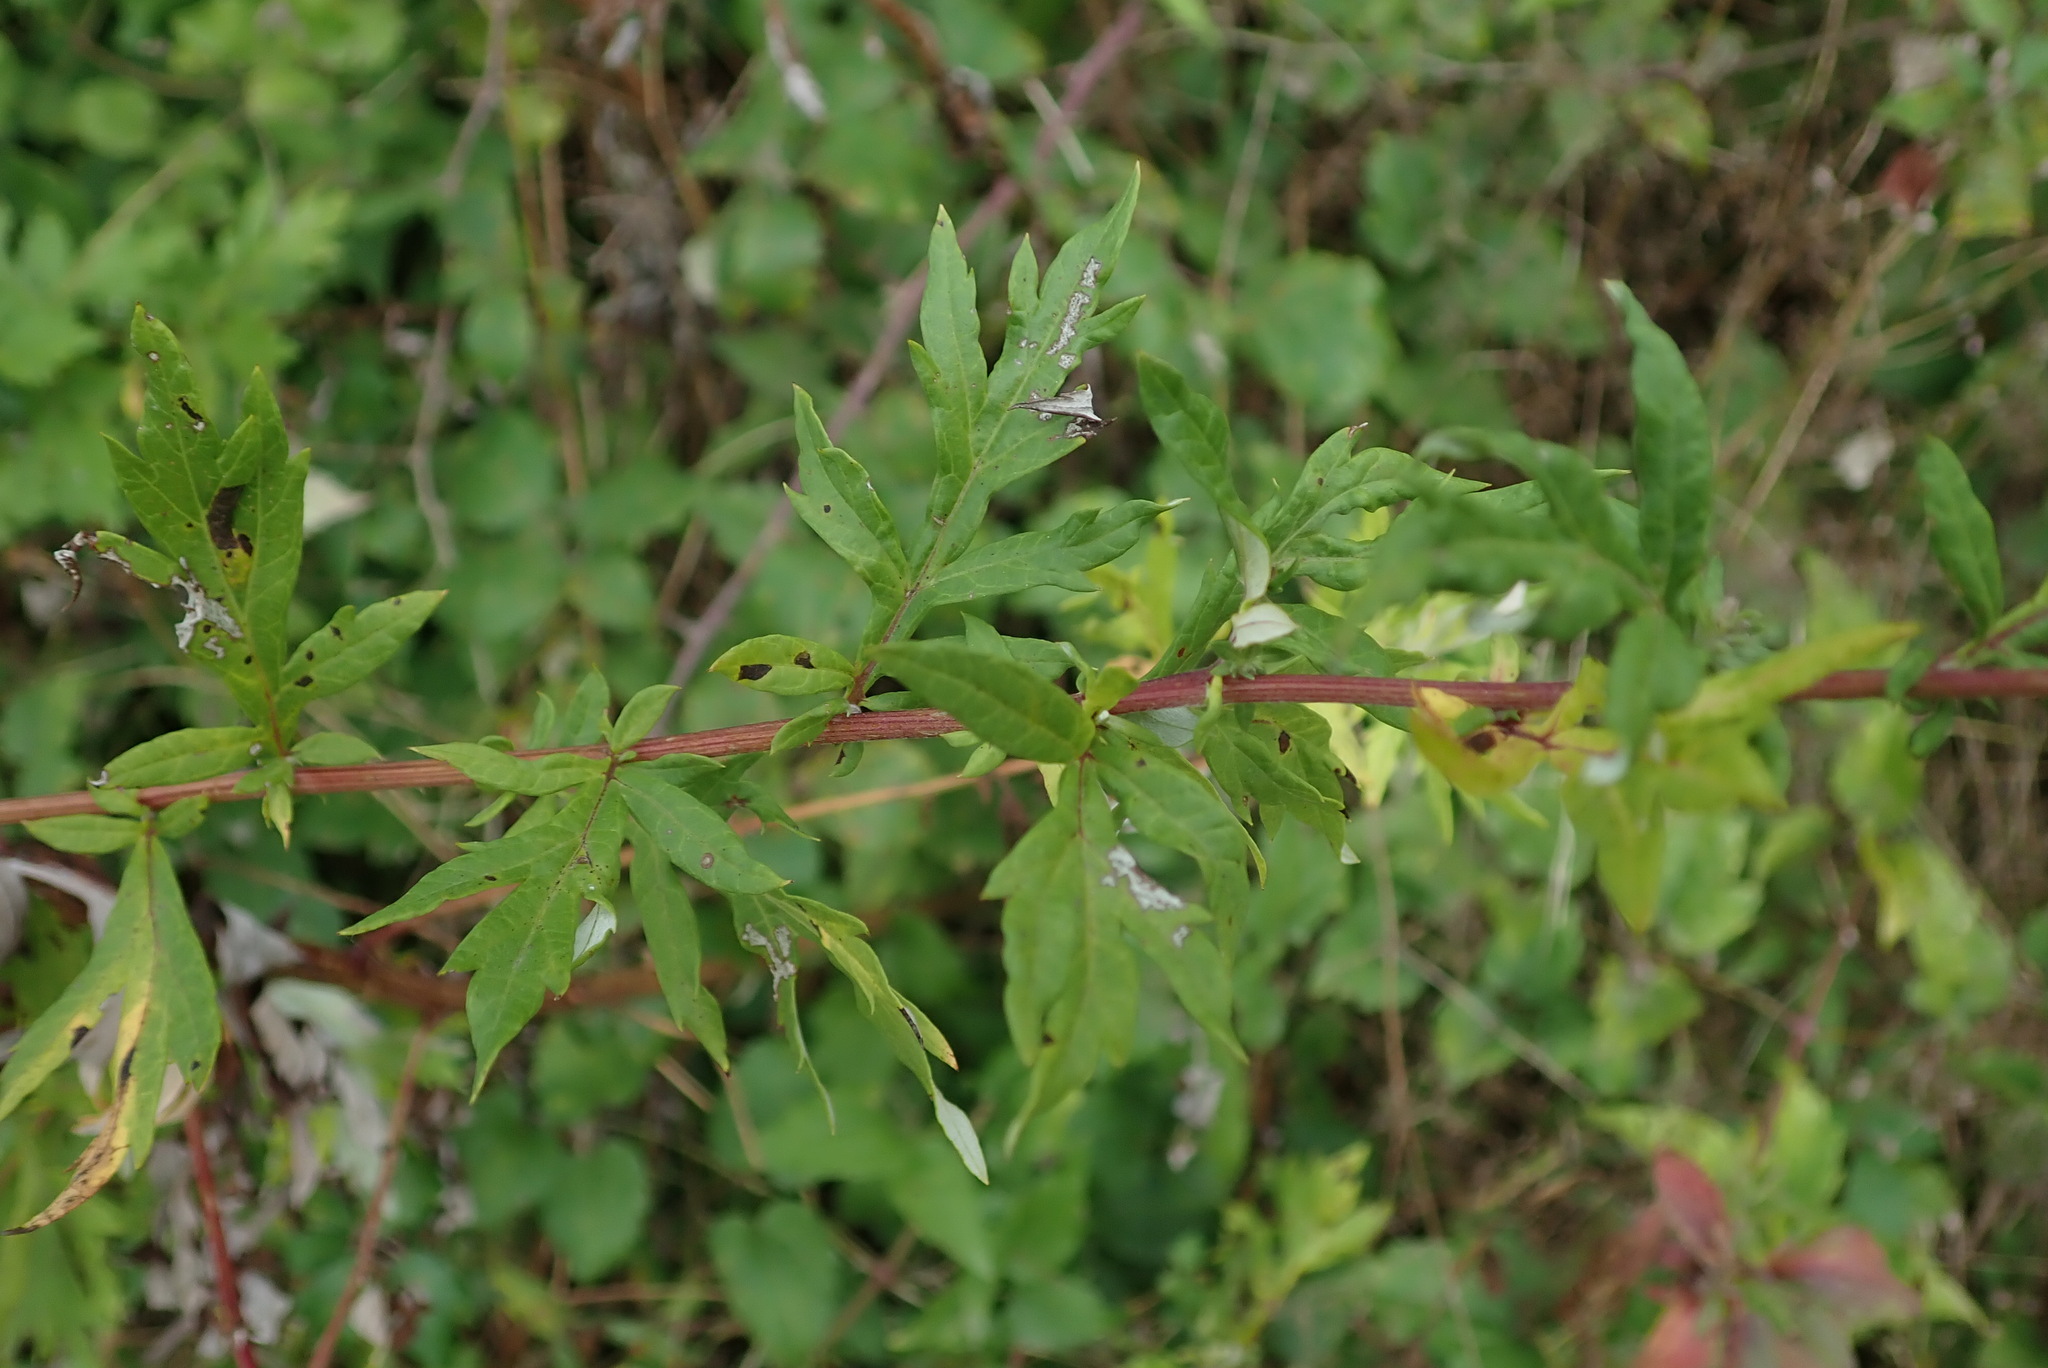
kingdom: Plantae
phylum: Tracheophyta
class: Magnoliopsida
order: Asterales
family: Asteraceae
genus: Artemisia
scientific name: Artemisia vulgaris
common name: Mugwort
